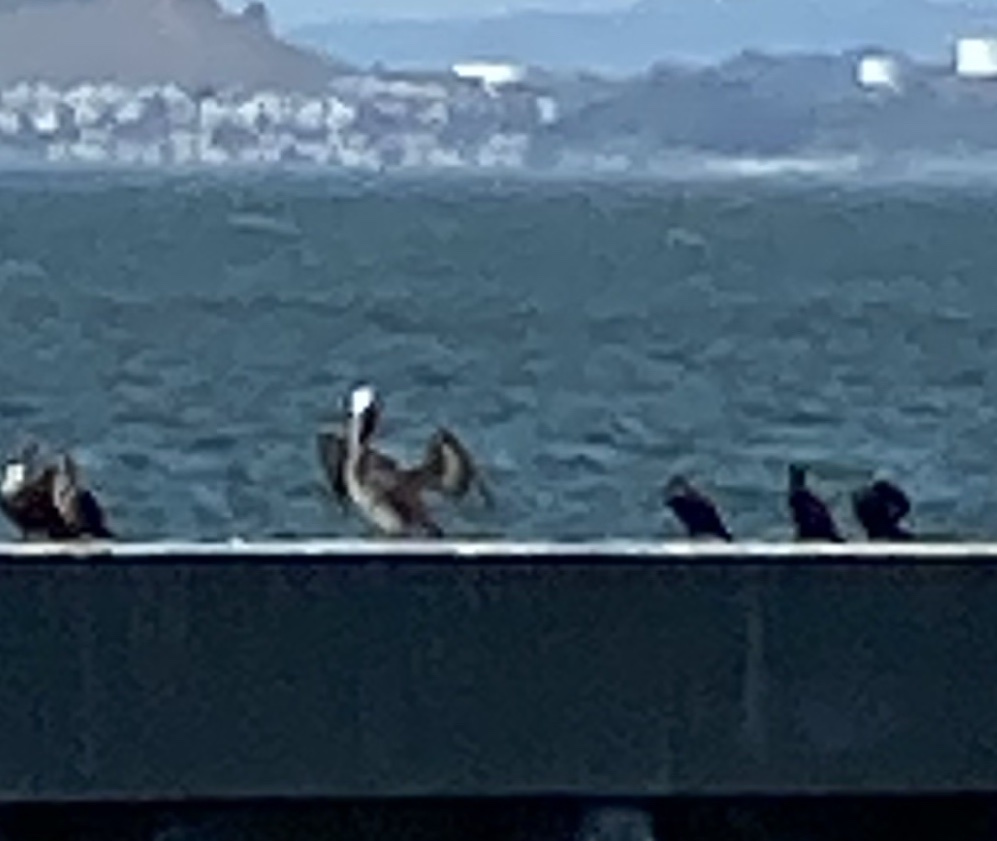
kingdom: Animalia
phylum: Chordata
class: Aves
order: Pelecaniformes
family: Pelecanidae
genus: Pelecanus
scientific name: Pelecanus occidentalis
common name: Brown pelican
